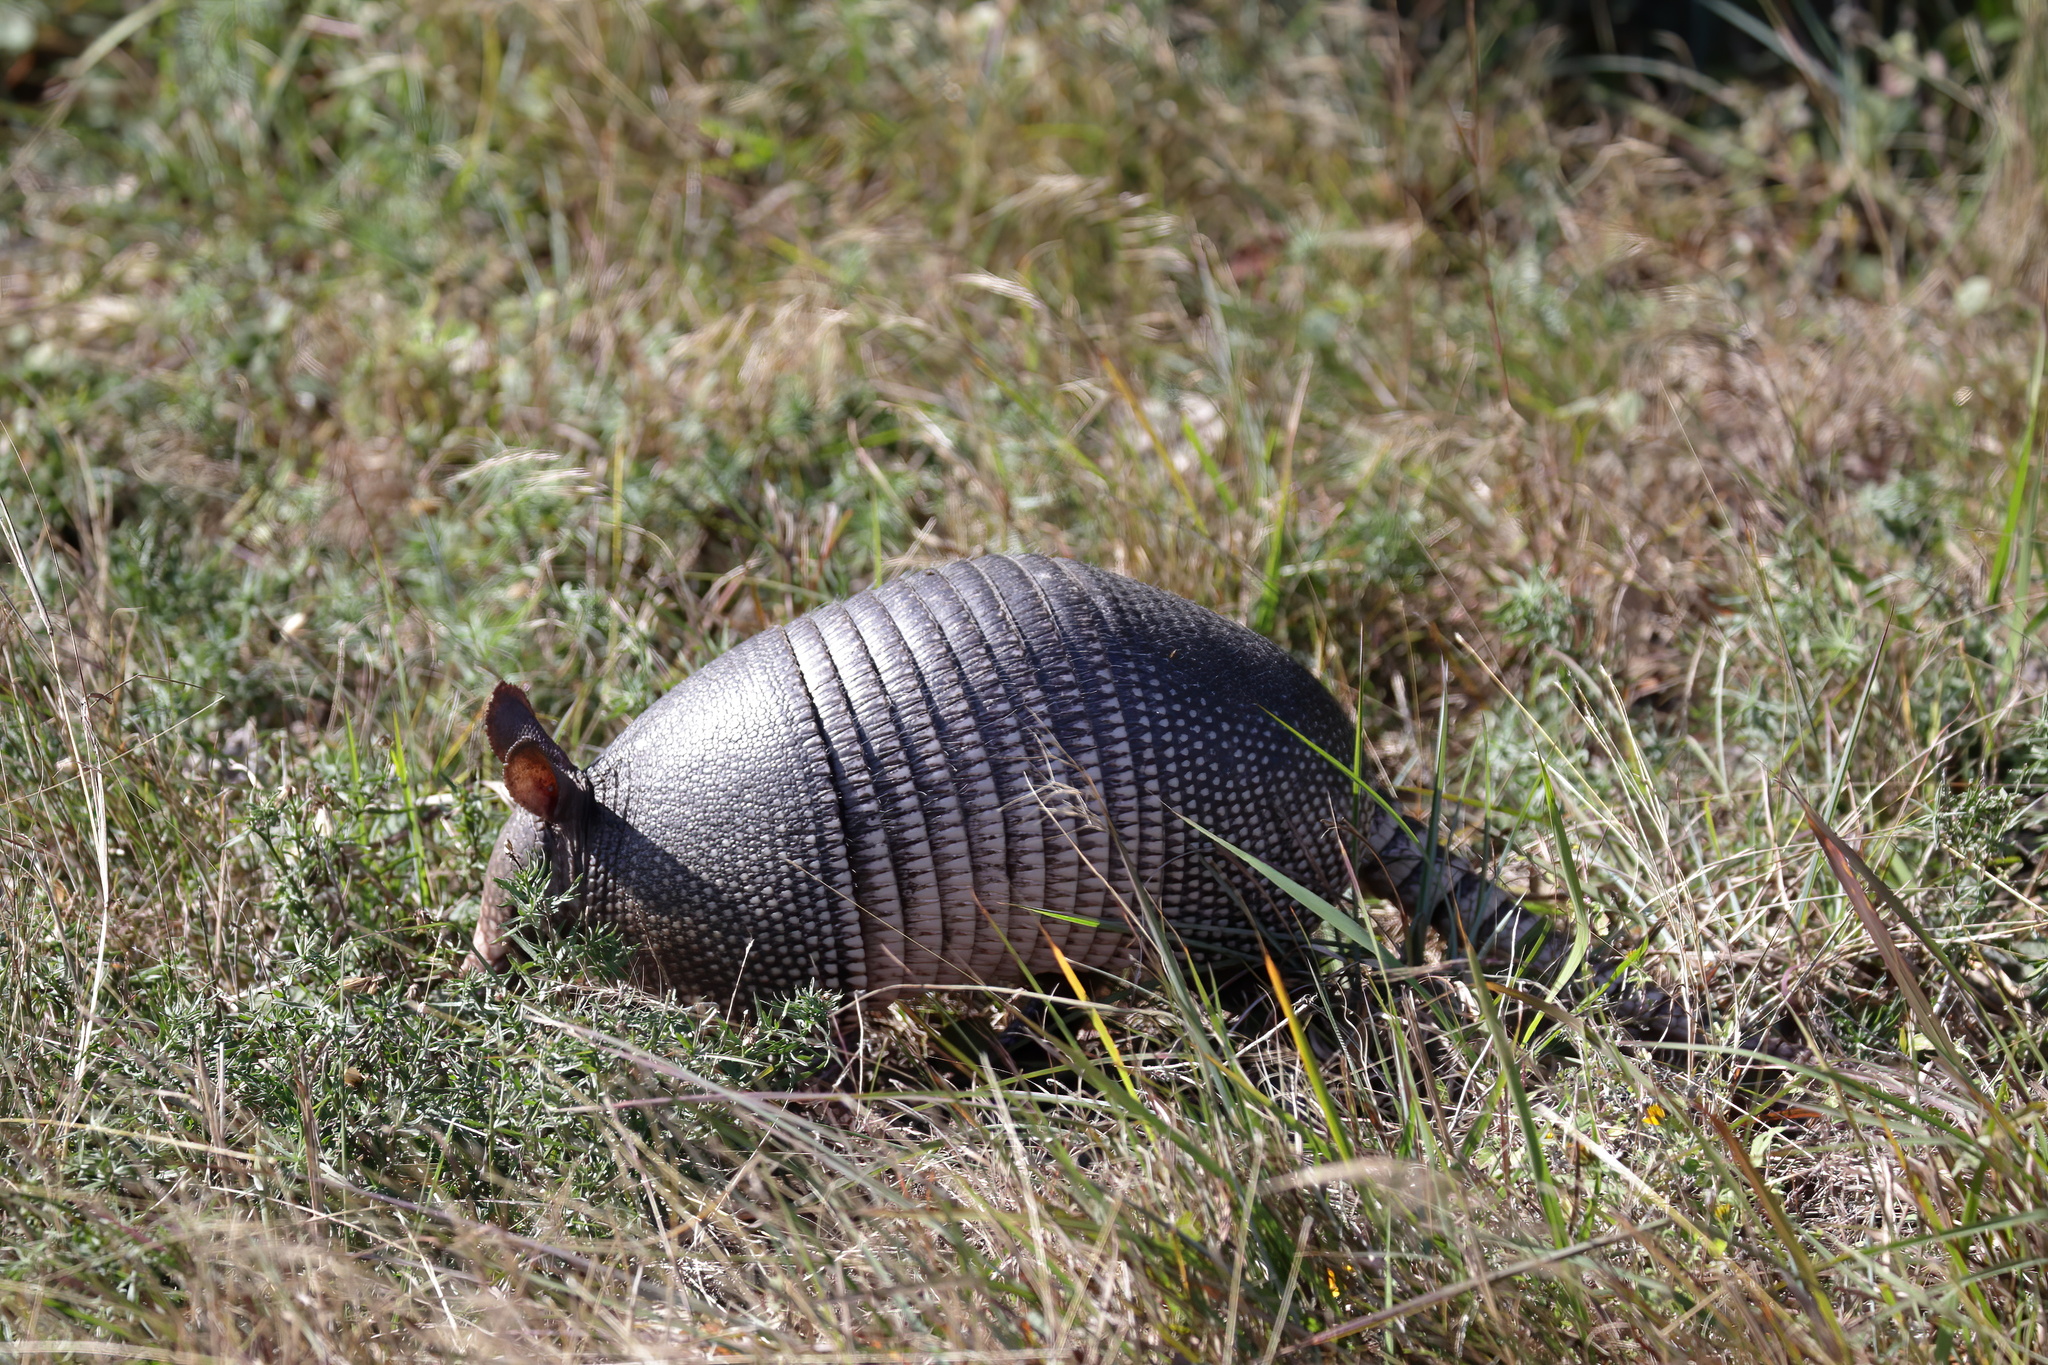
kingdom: Animalia
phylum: Chordata
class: Mammalia
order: Cingulata
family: Dasypodidae
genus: Dasypus
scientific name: Dasypus novemcinctus
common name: Nine-banded armadillo
